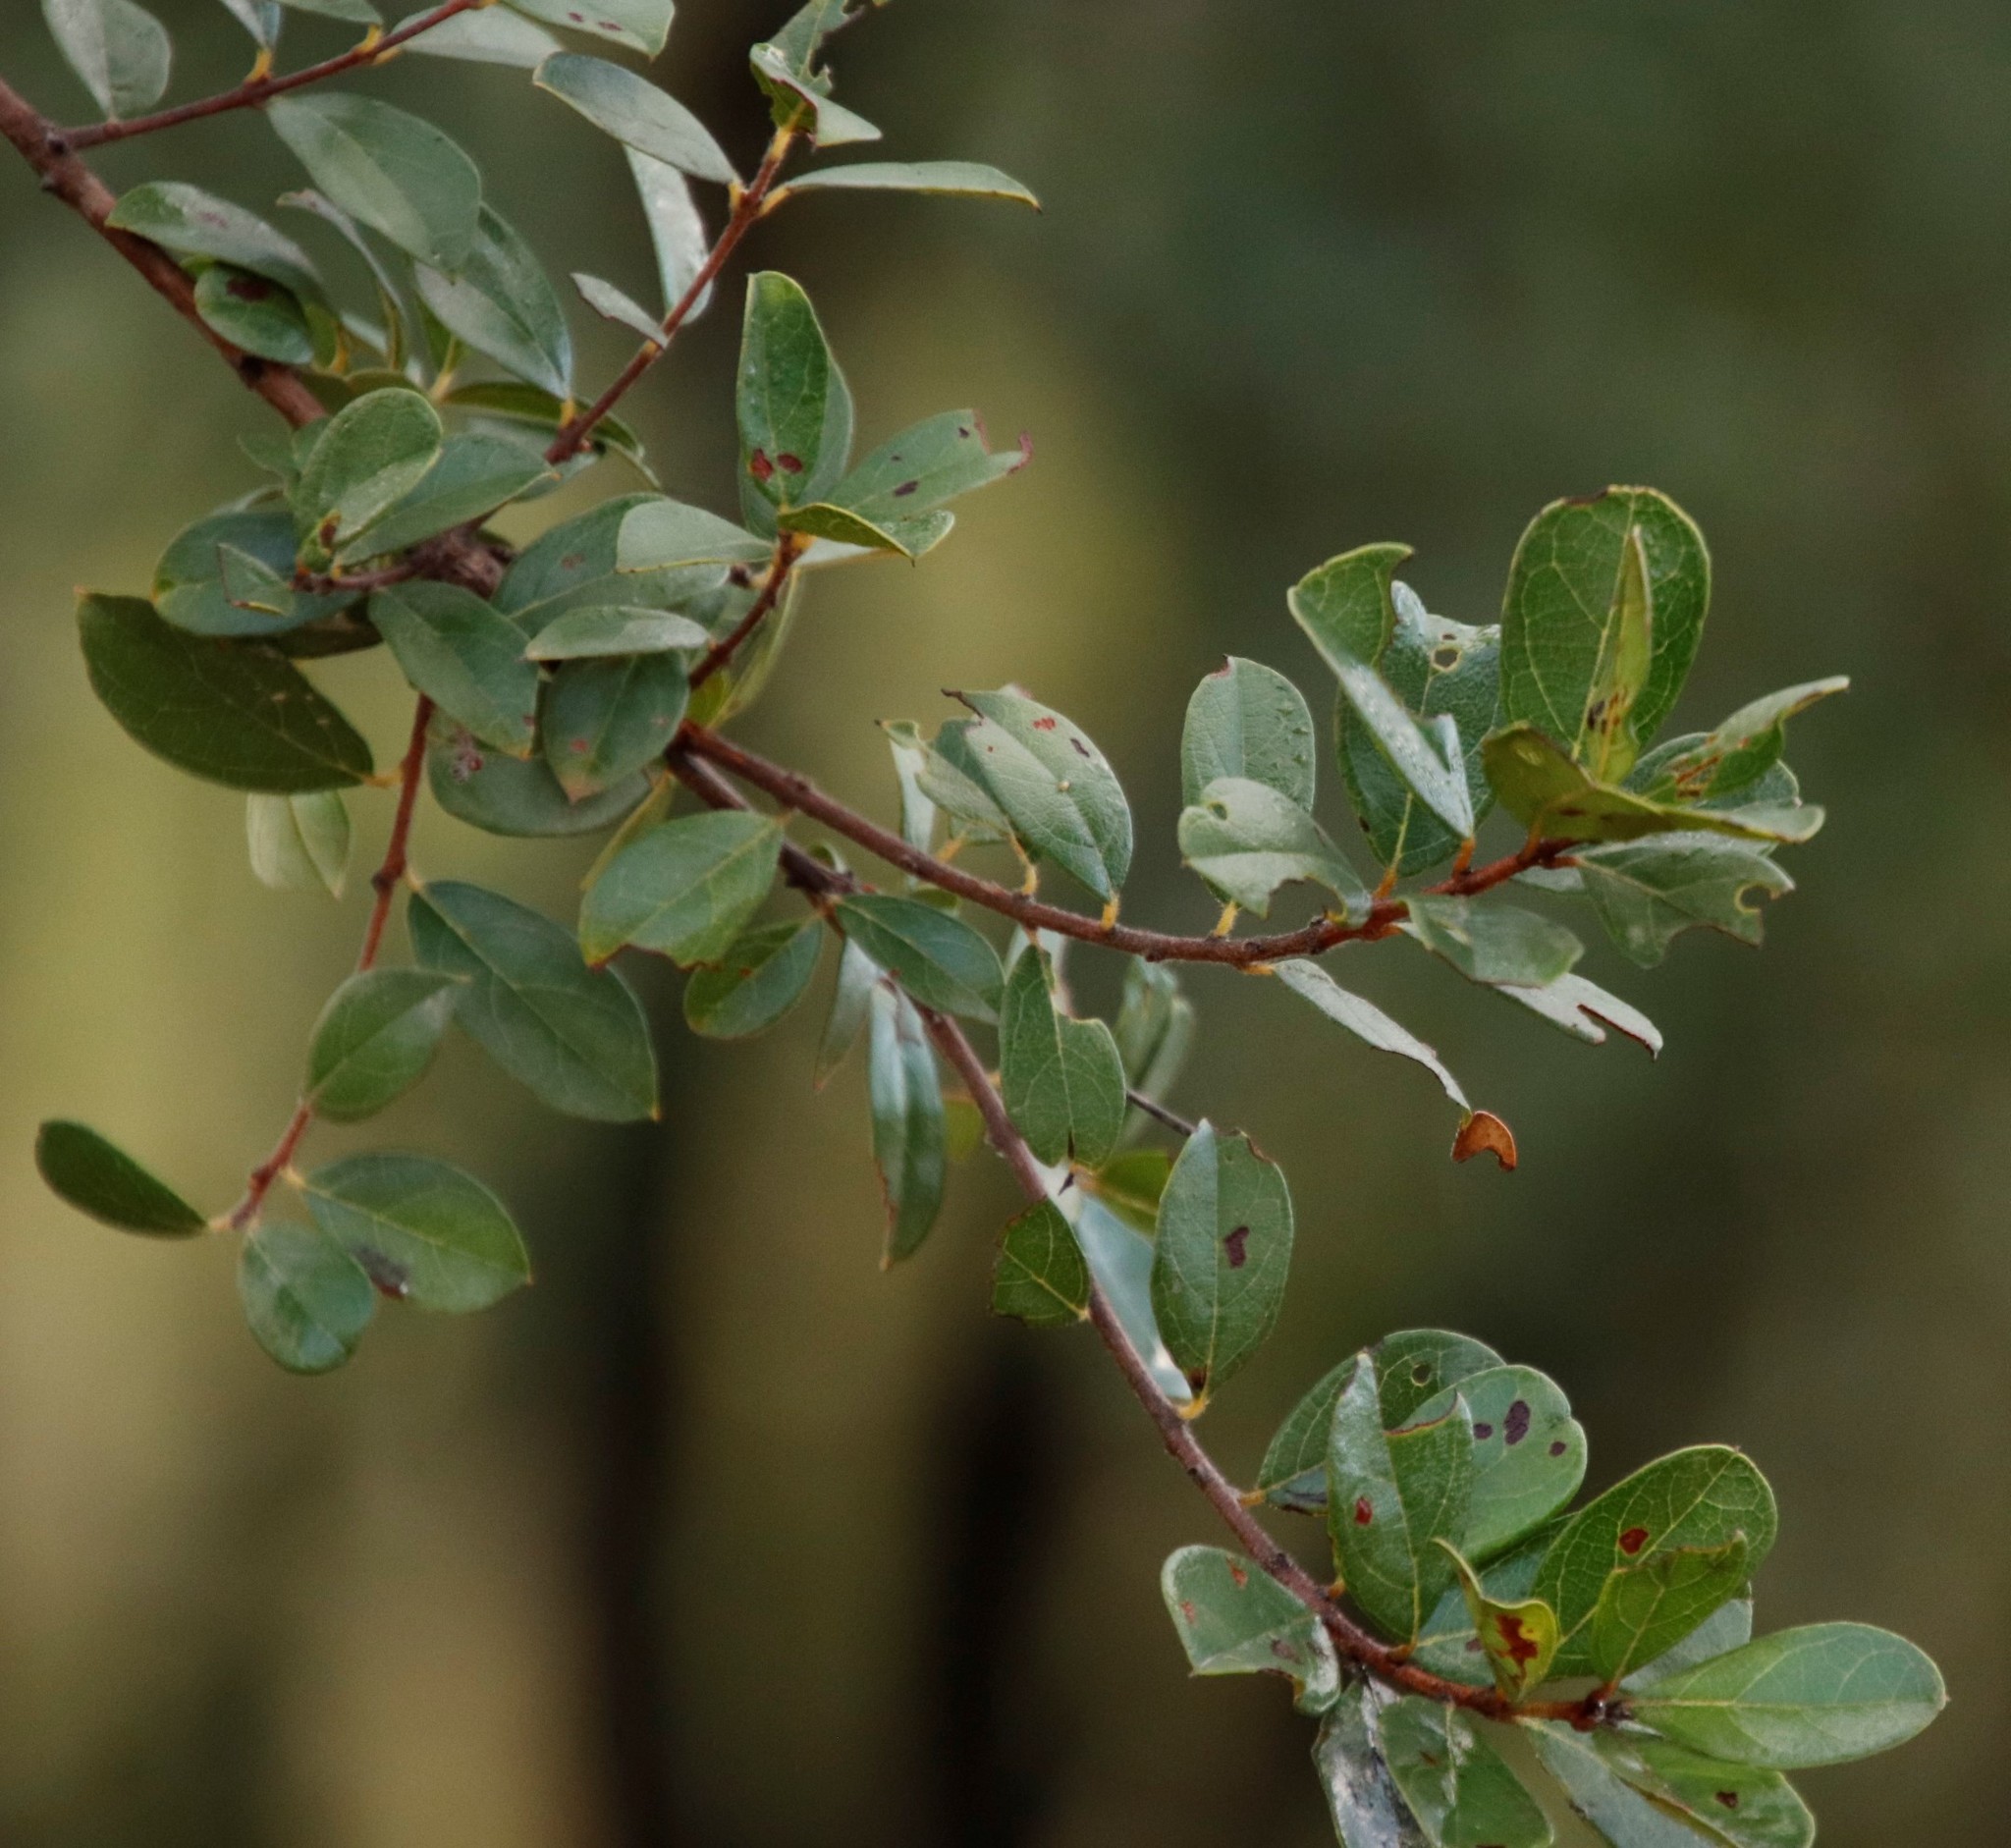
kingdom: Plantae
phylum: Tracheophyta
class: Magnoliopsida
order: Myrtales
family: Combretaceae
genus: Combretum
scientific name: Combretum hereroense
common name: Russet bushwillow
